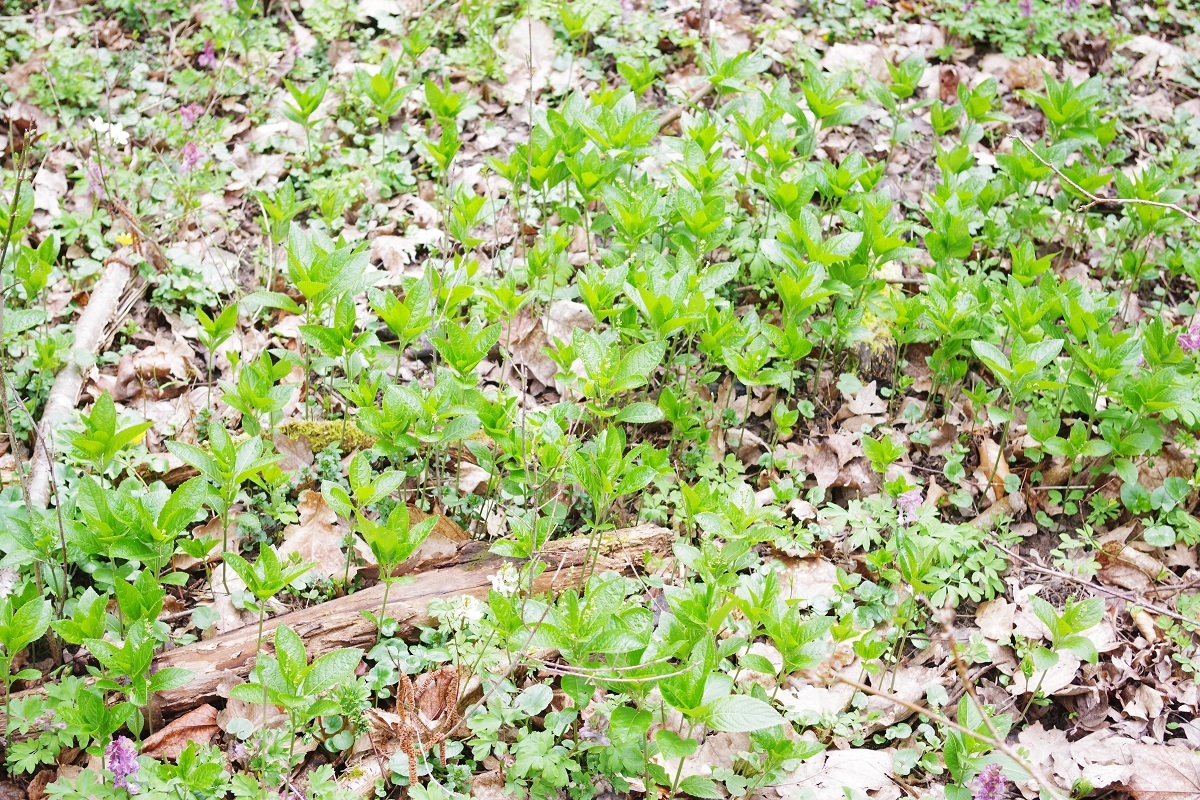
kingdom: Plantae
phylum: Tracheophyta
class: Magnoliopsida
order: Malpighiales
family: Euphorbiaceae
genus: Mercurialis
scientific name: Mercurialis perennis
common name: Dog mercury
